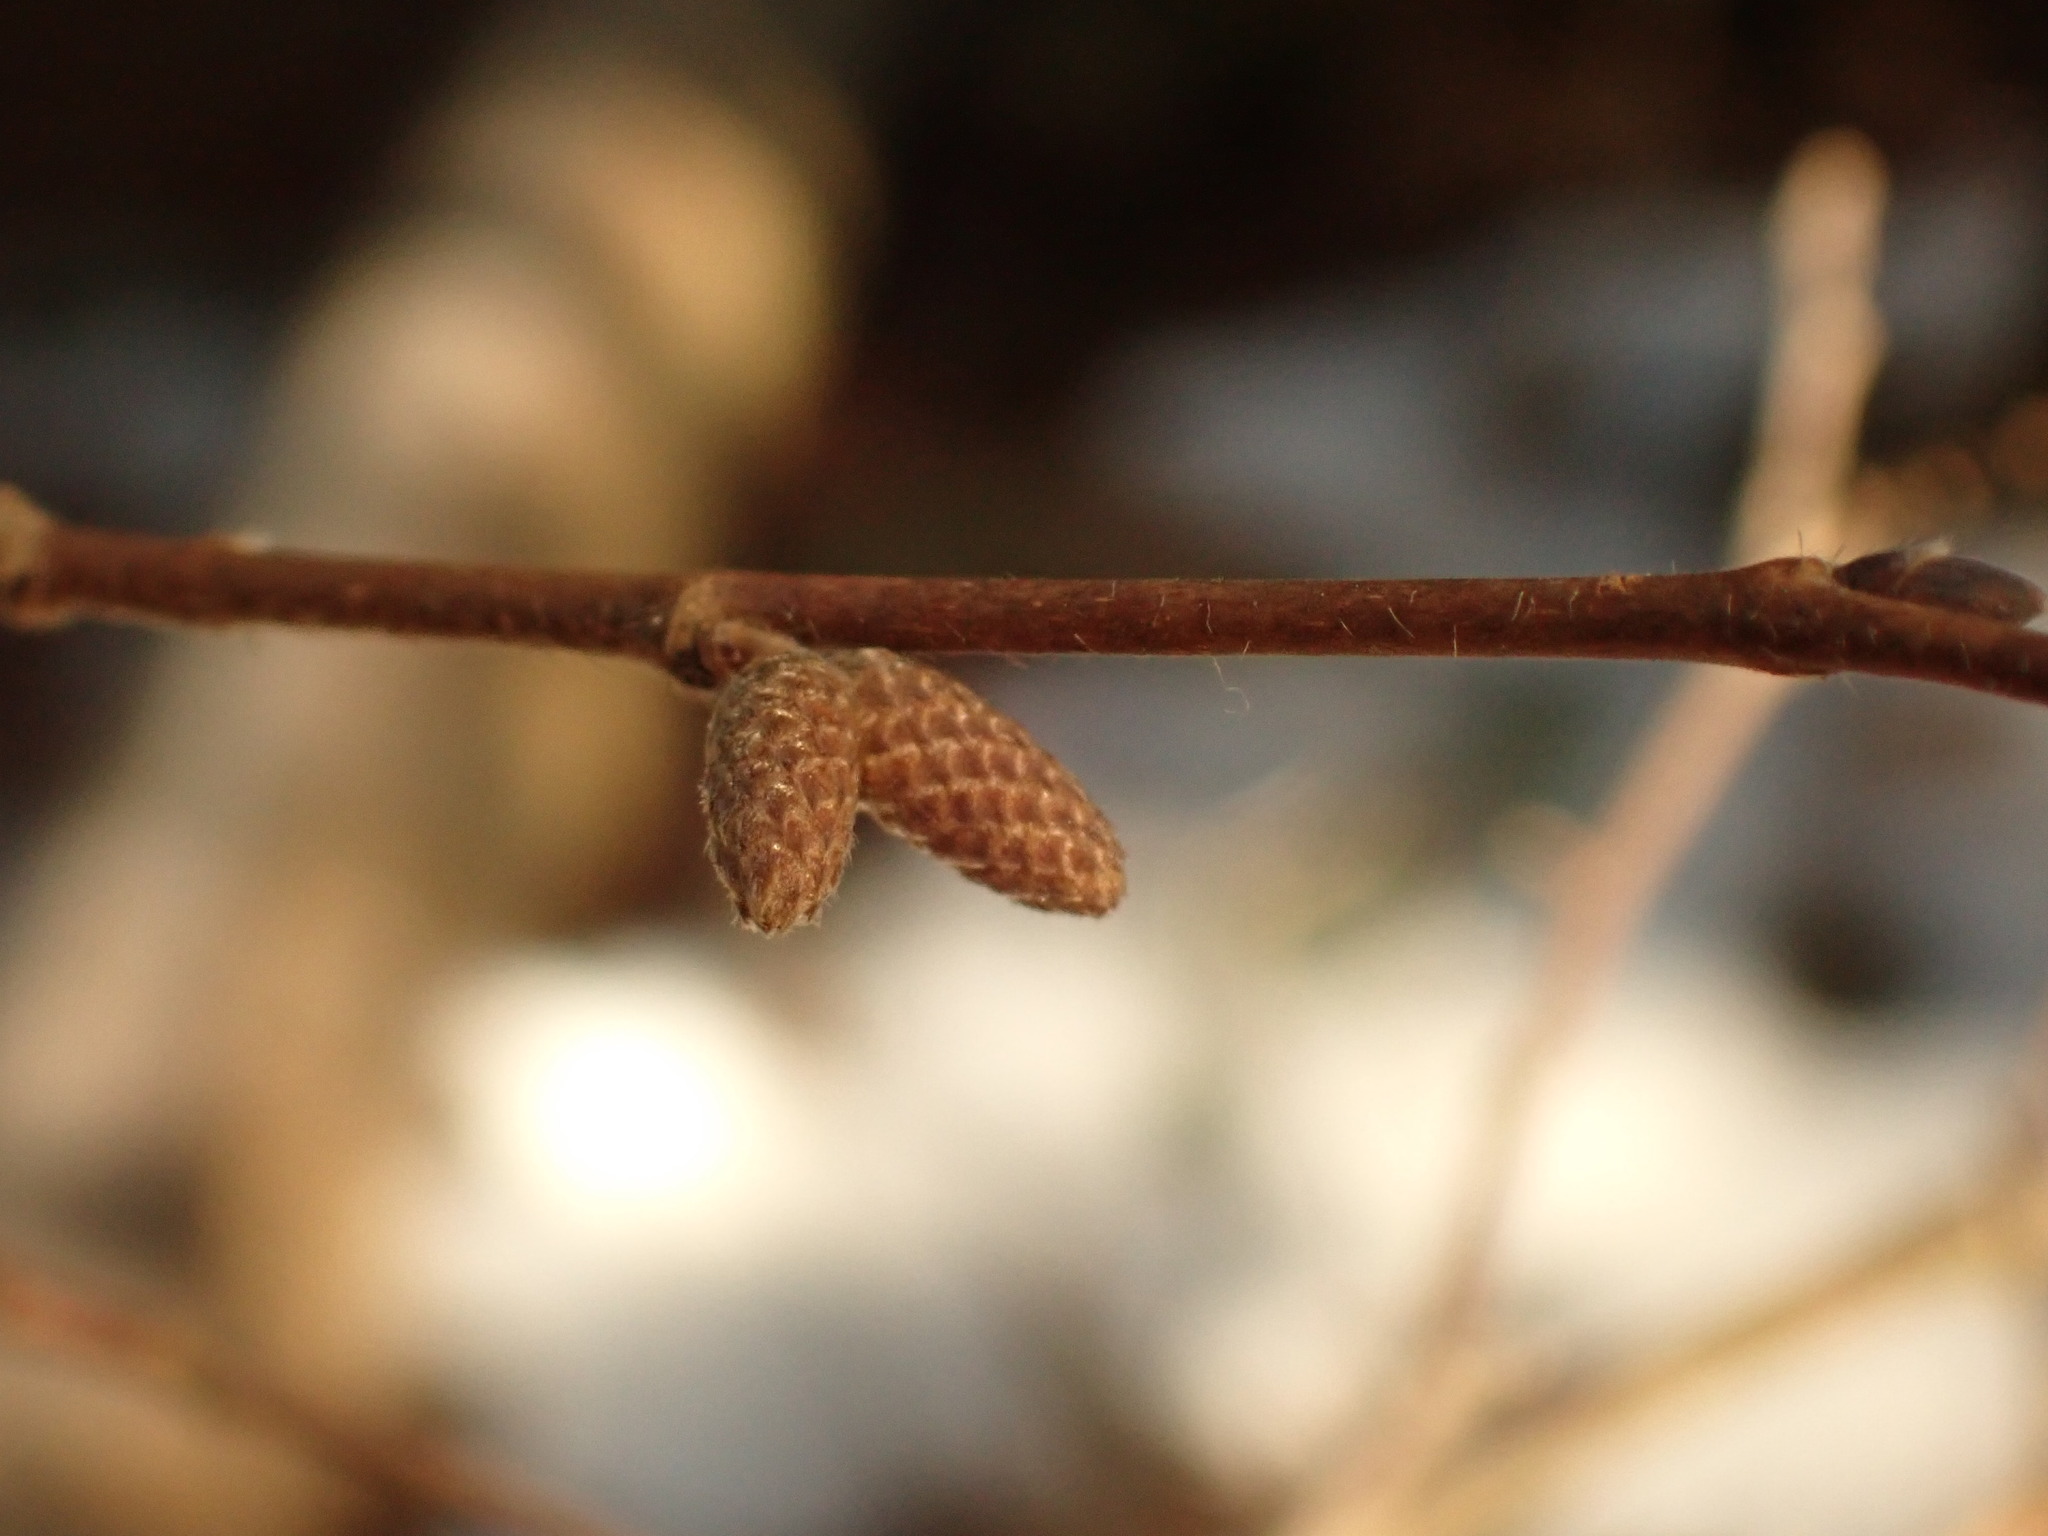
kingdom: Plantae
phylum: Tracheophyta
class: Magnoliopsida
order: Fagales
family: Betulaceae
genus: Corylus
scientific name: Corylus cornuta
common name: Beaked hazel
